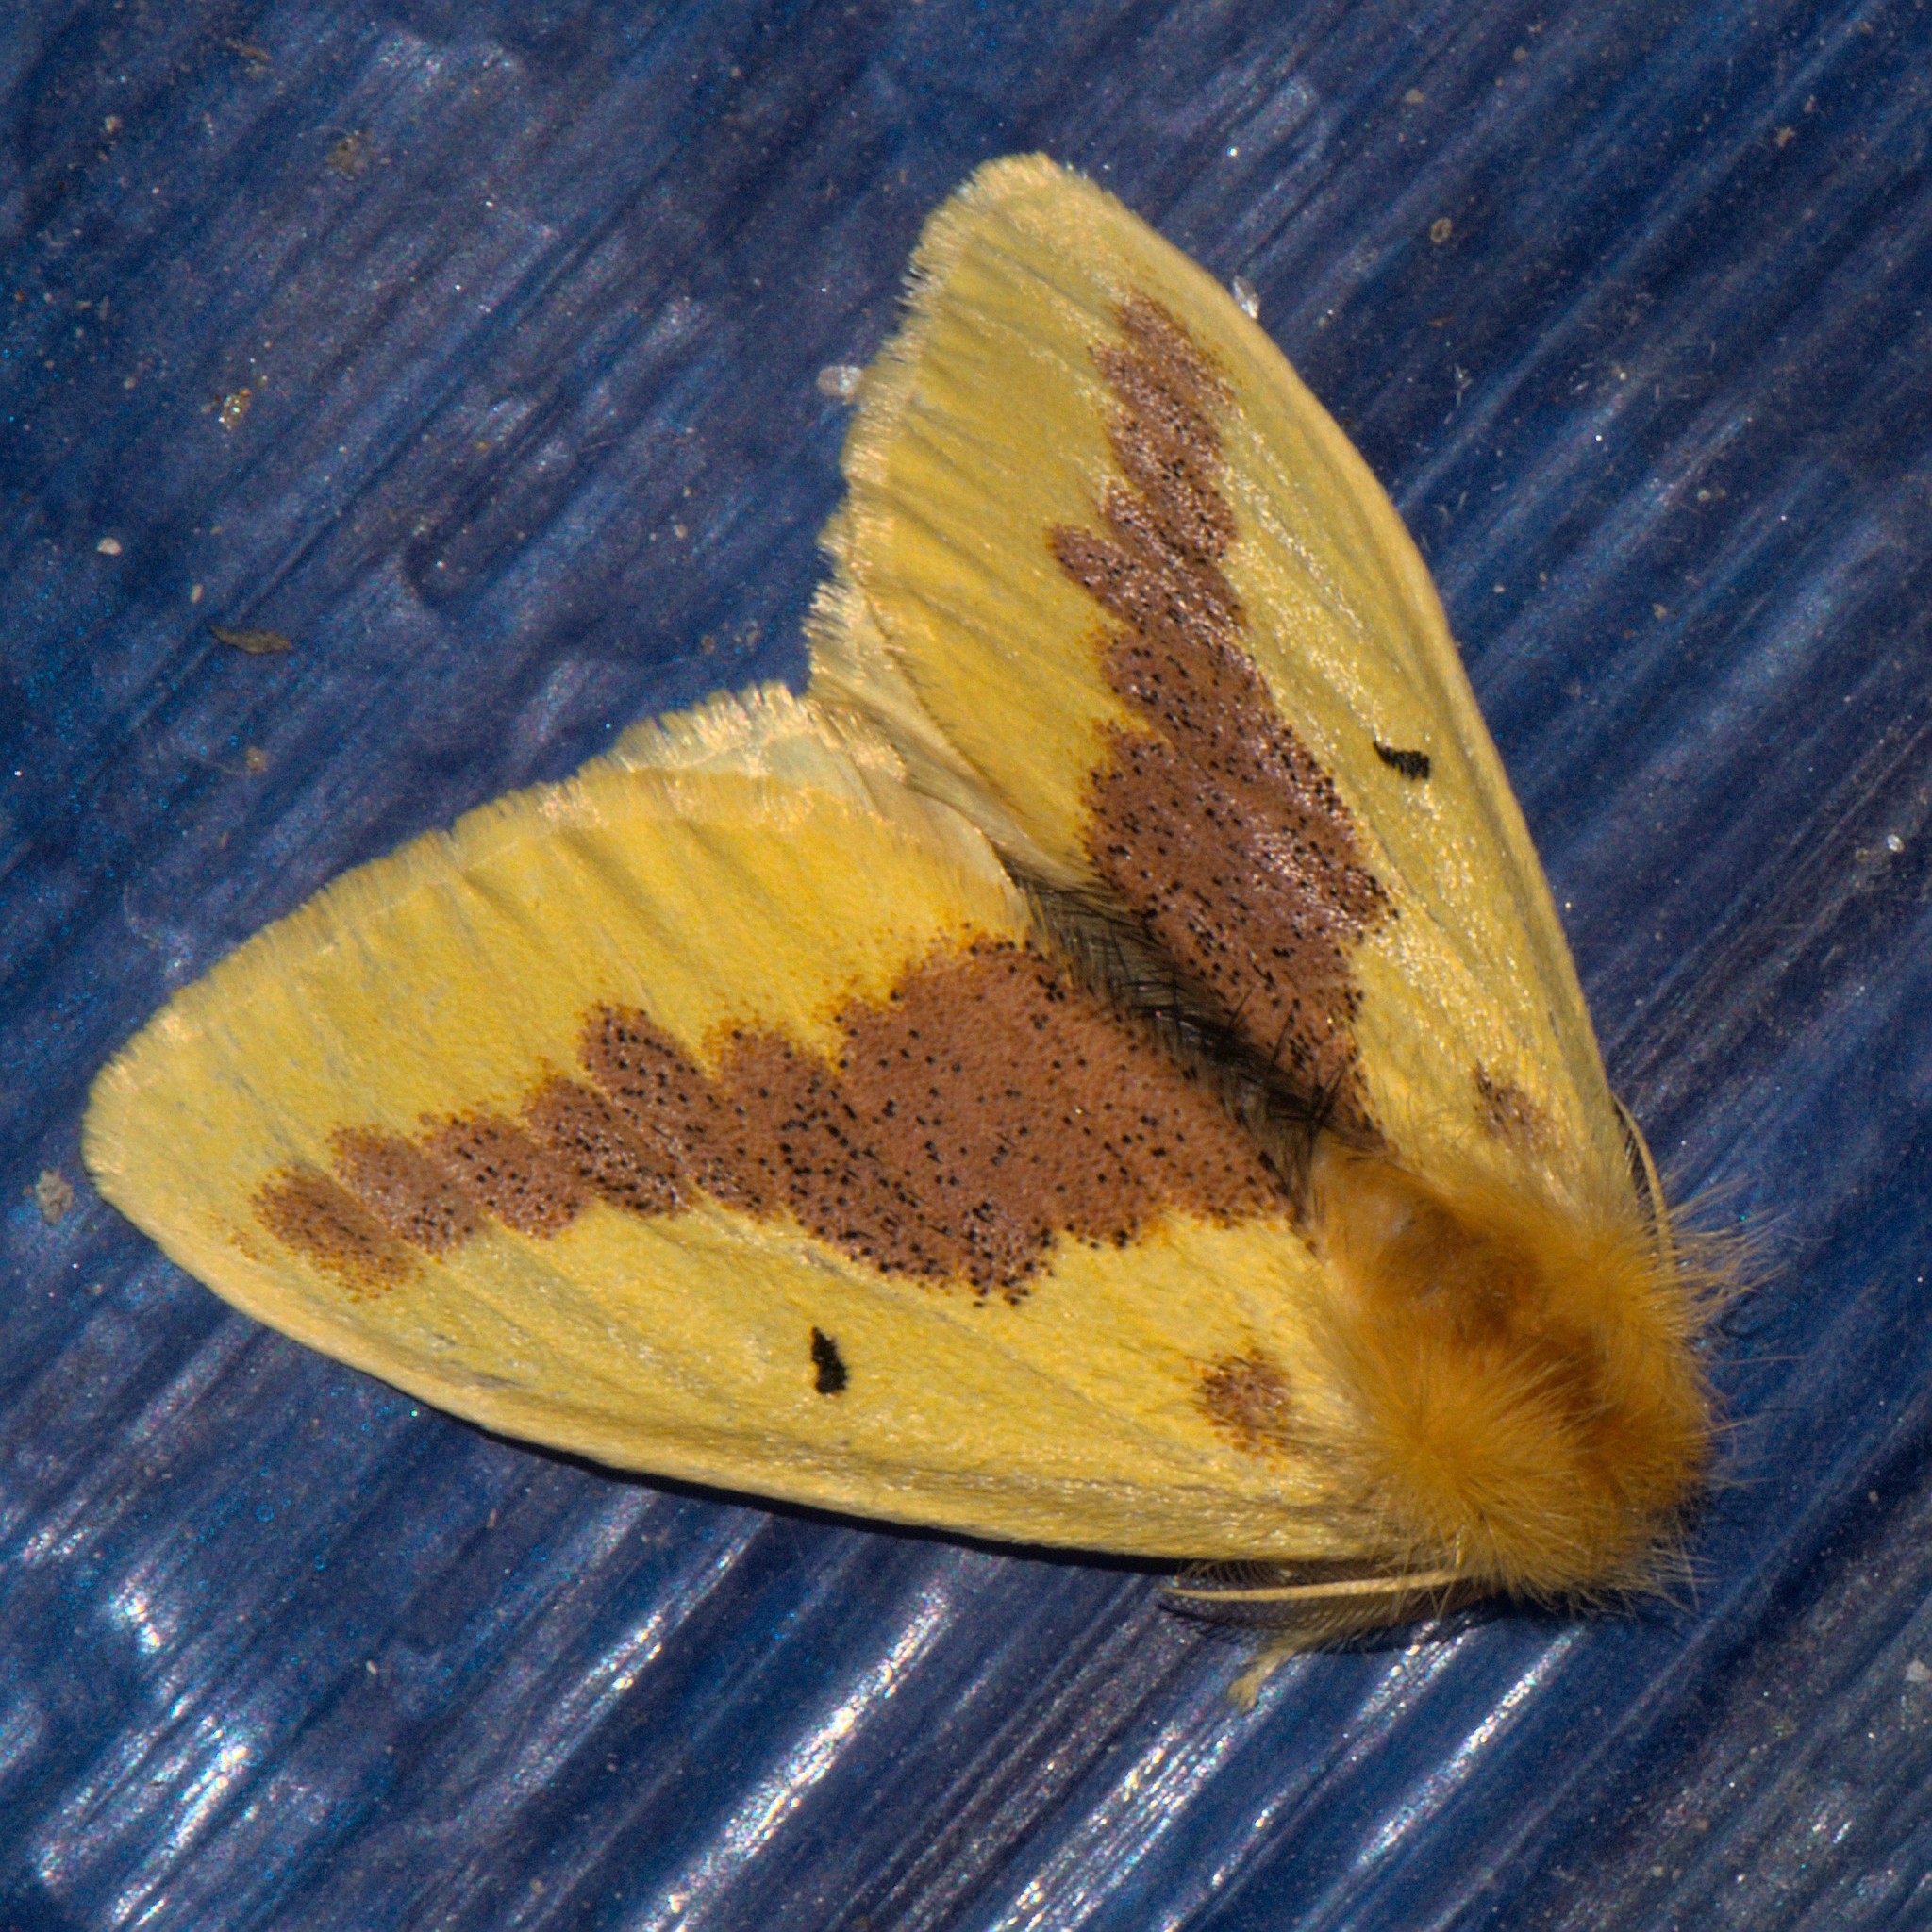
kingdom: Animalia
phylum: Arthropoda
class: Insecta
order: Lepidoptera
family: Erebidae
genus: Euproctis
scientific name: Euproctis varia
